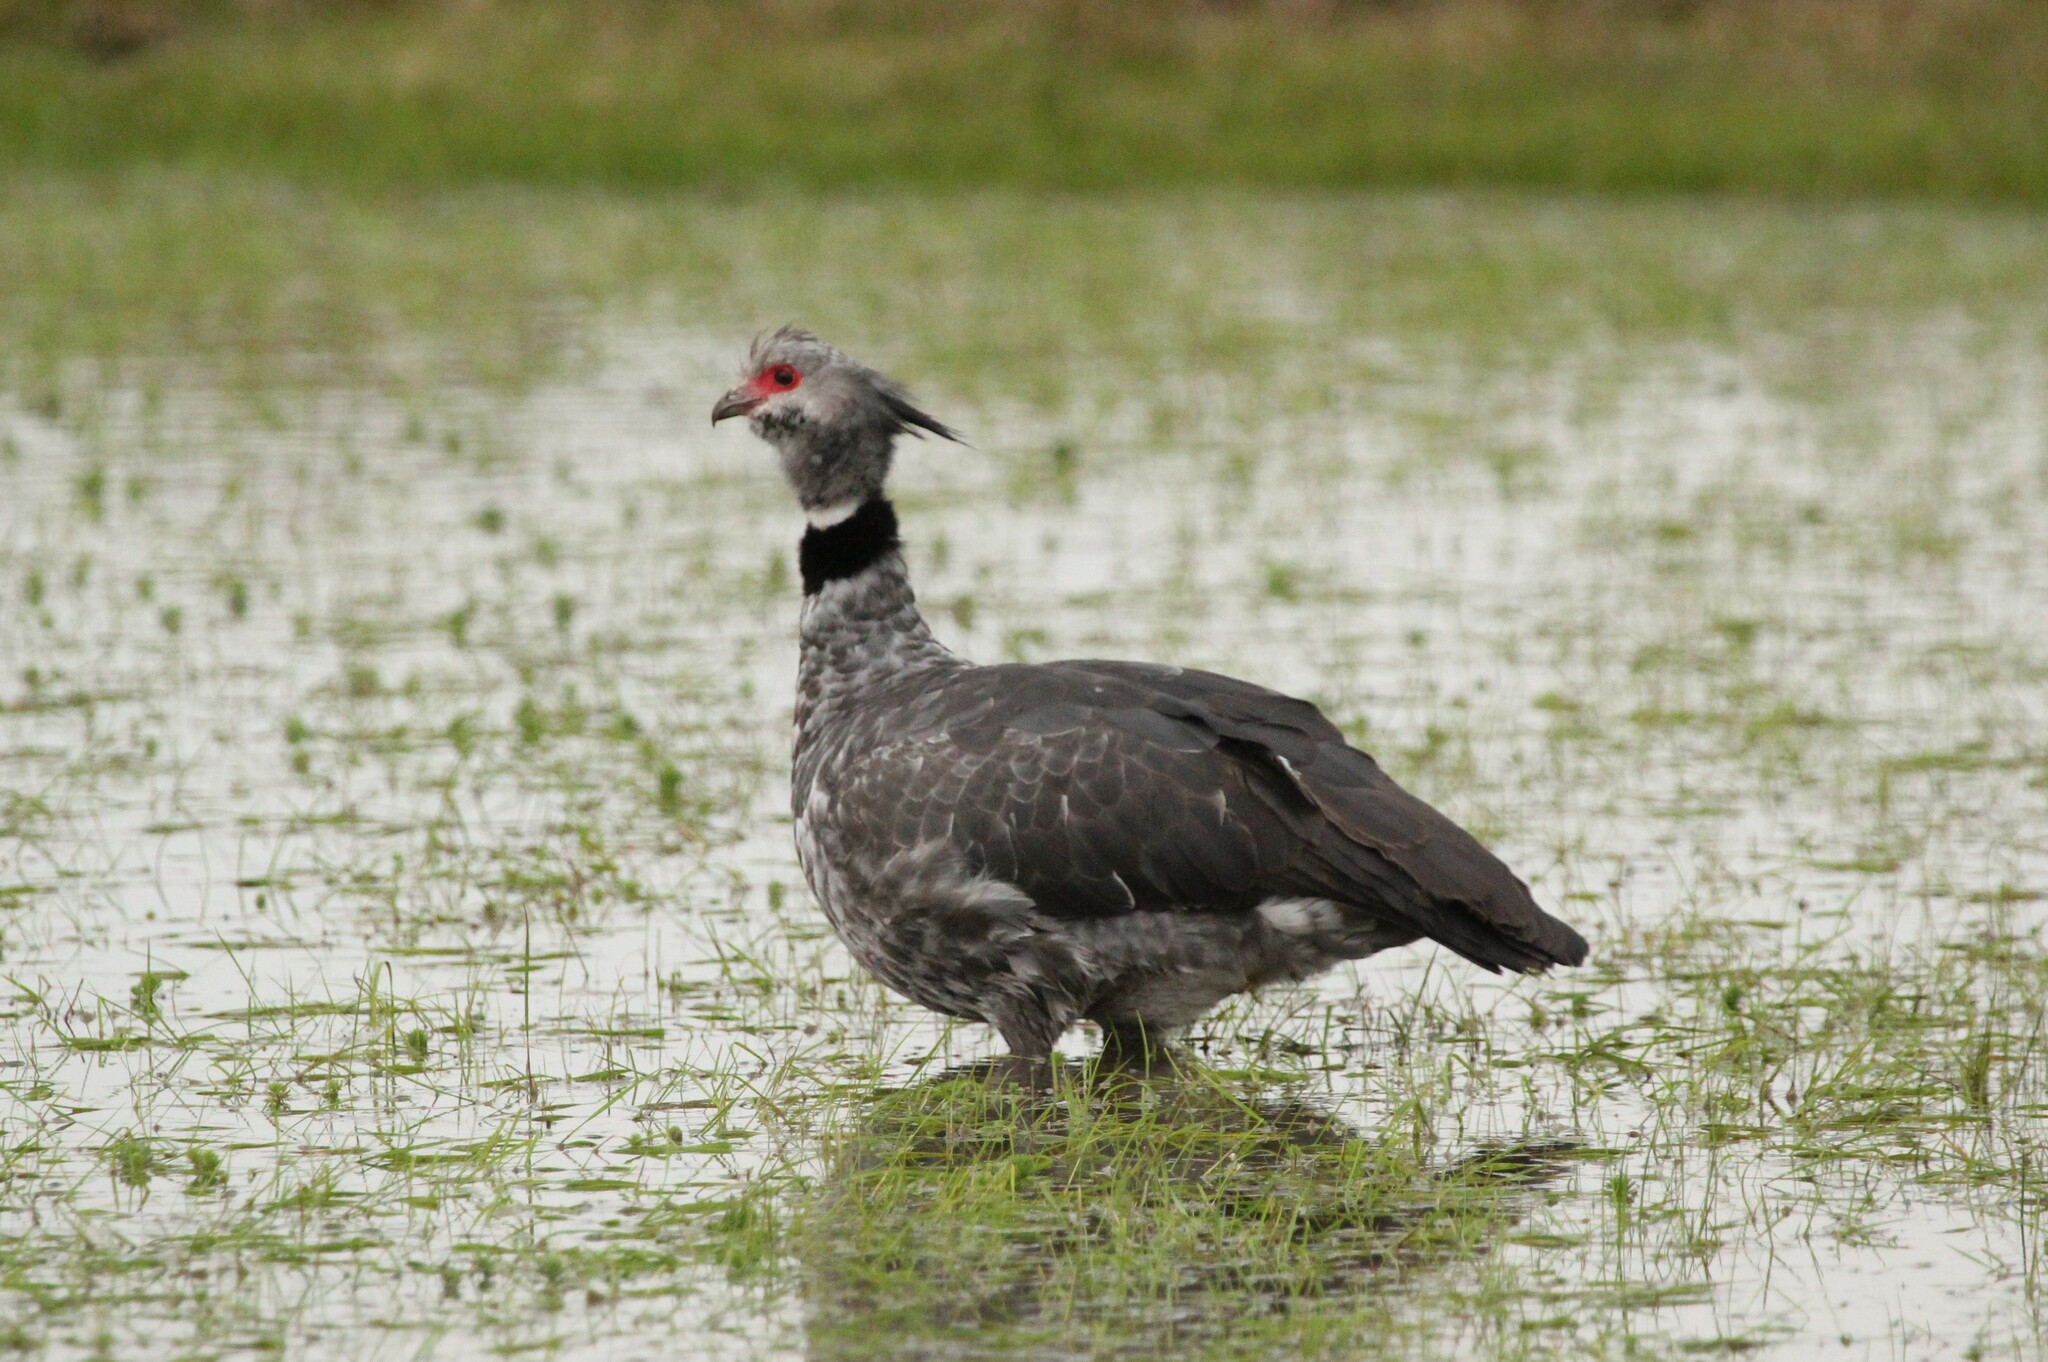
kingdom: Animalia
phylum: Chordata
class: Aves
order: Anseriformes
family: Anhimidae
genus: Chauna
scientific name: Chauna torquata
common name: Southern screamer
